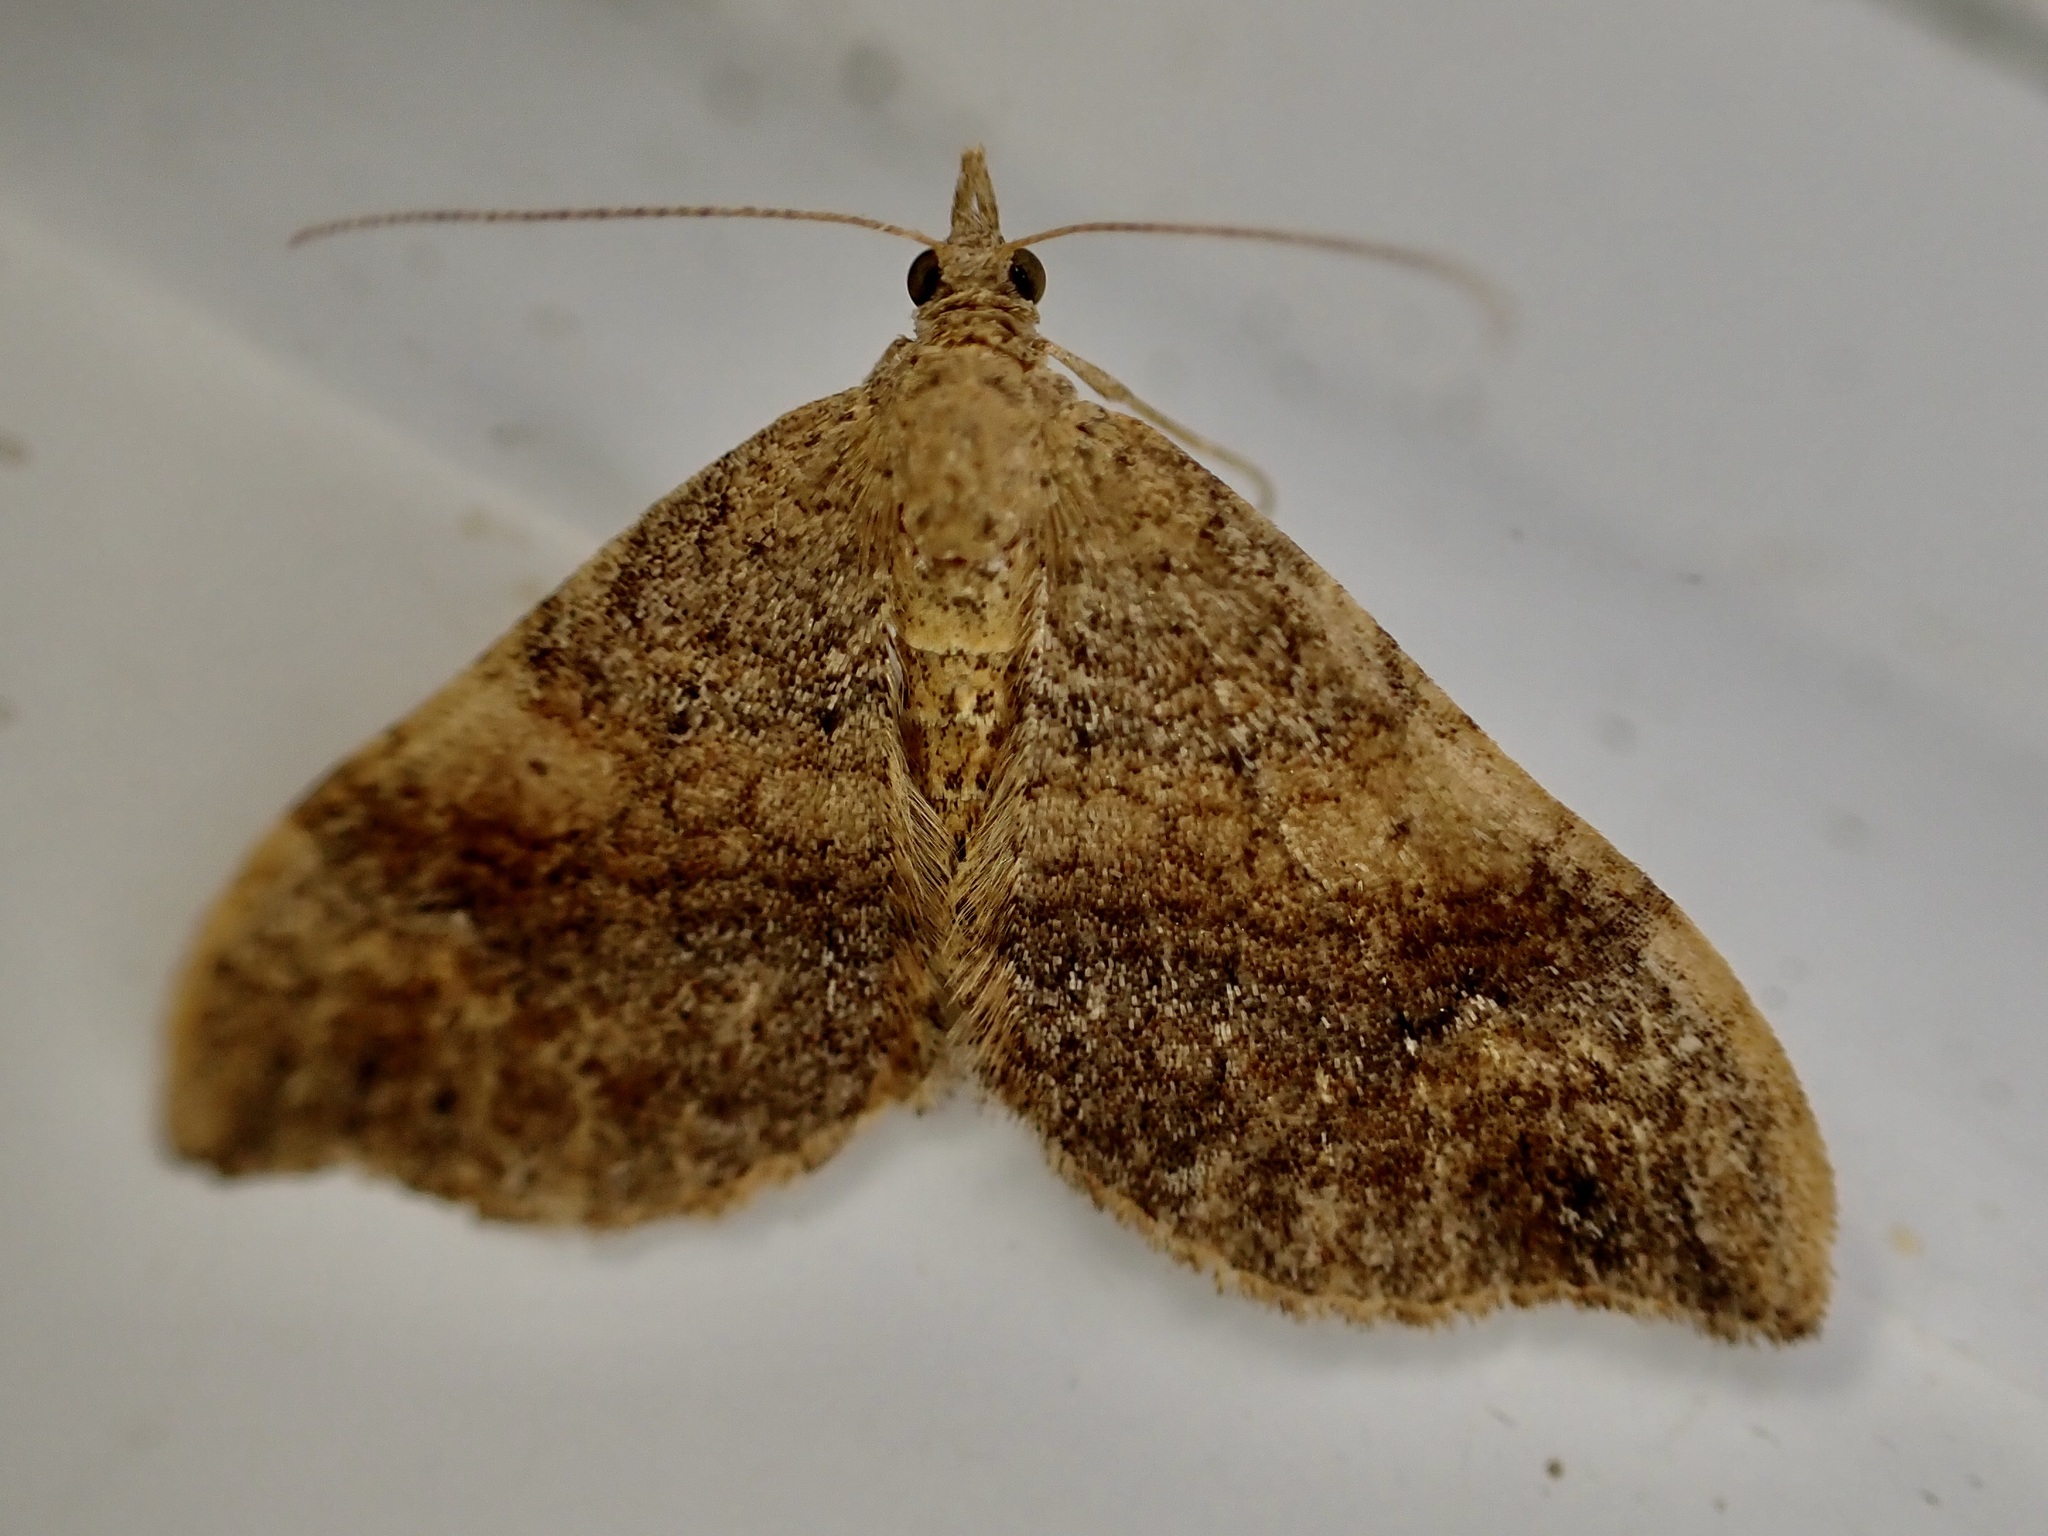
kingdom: Animalia
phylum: Arthropoda
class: Insecta
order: Lepidoptera
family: Geometridae
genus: Homodotis
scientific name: Homodotis megaspilata
